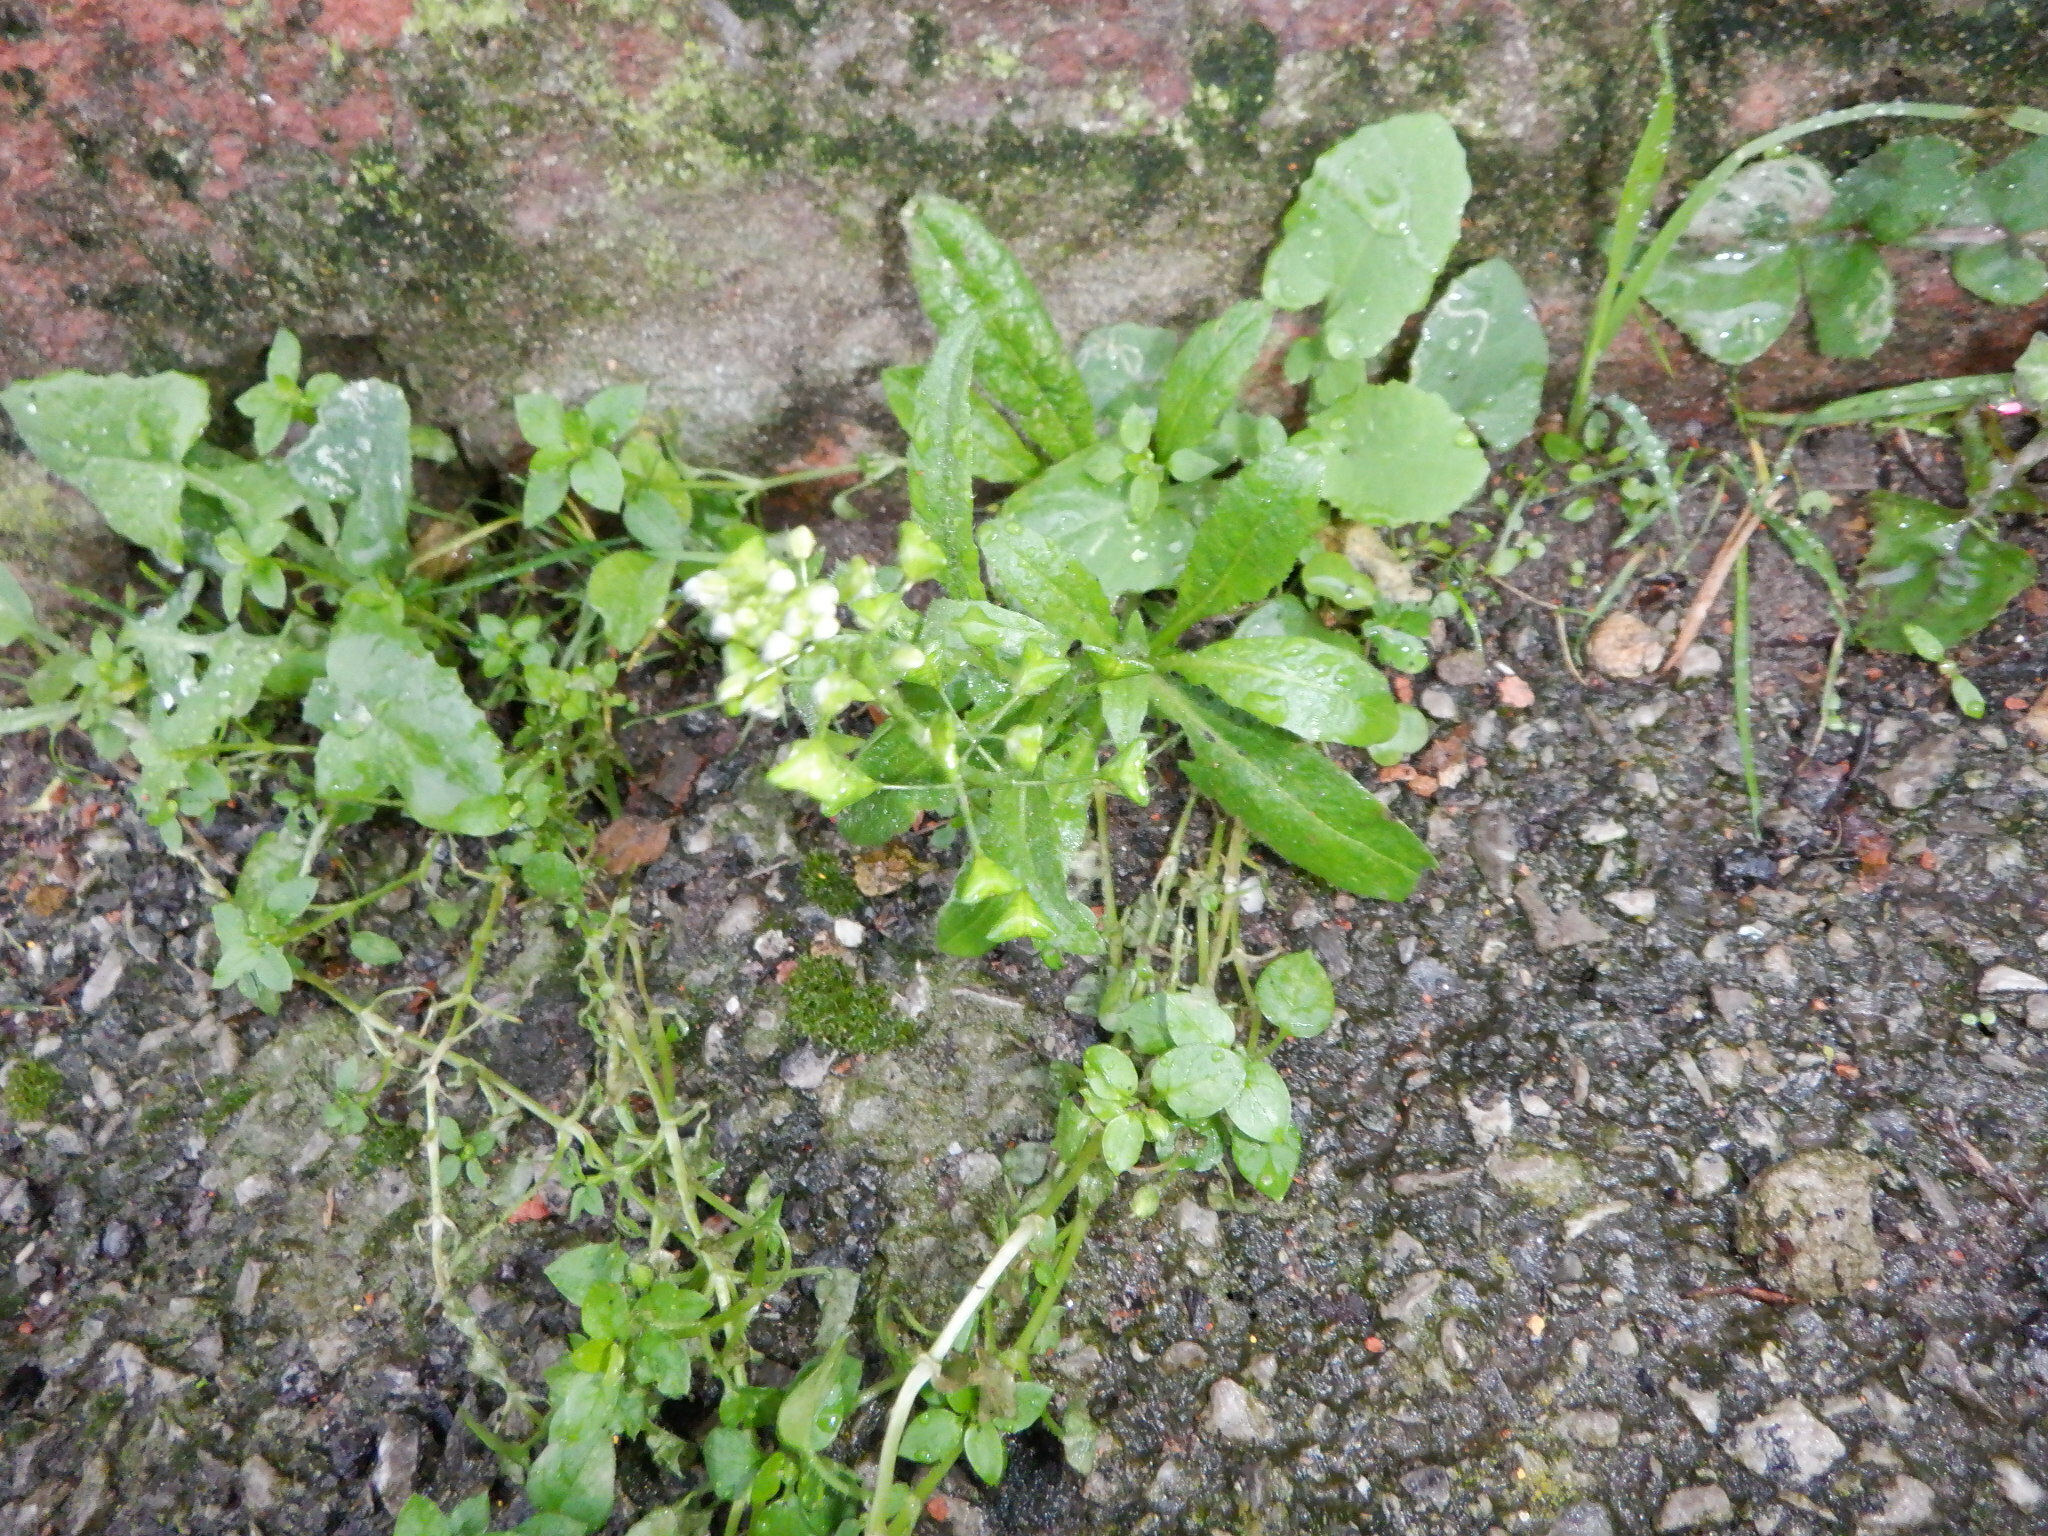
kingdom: Plantae
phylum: Tracheophyta
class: Magnoliopsida
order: Brassicales
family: Brassicaceae
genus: Capsella
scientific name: Capsella bursa-pastoris
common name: Shepherd's purse
